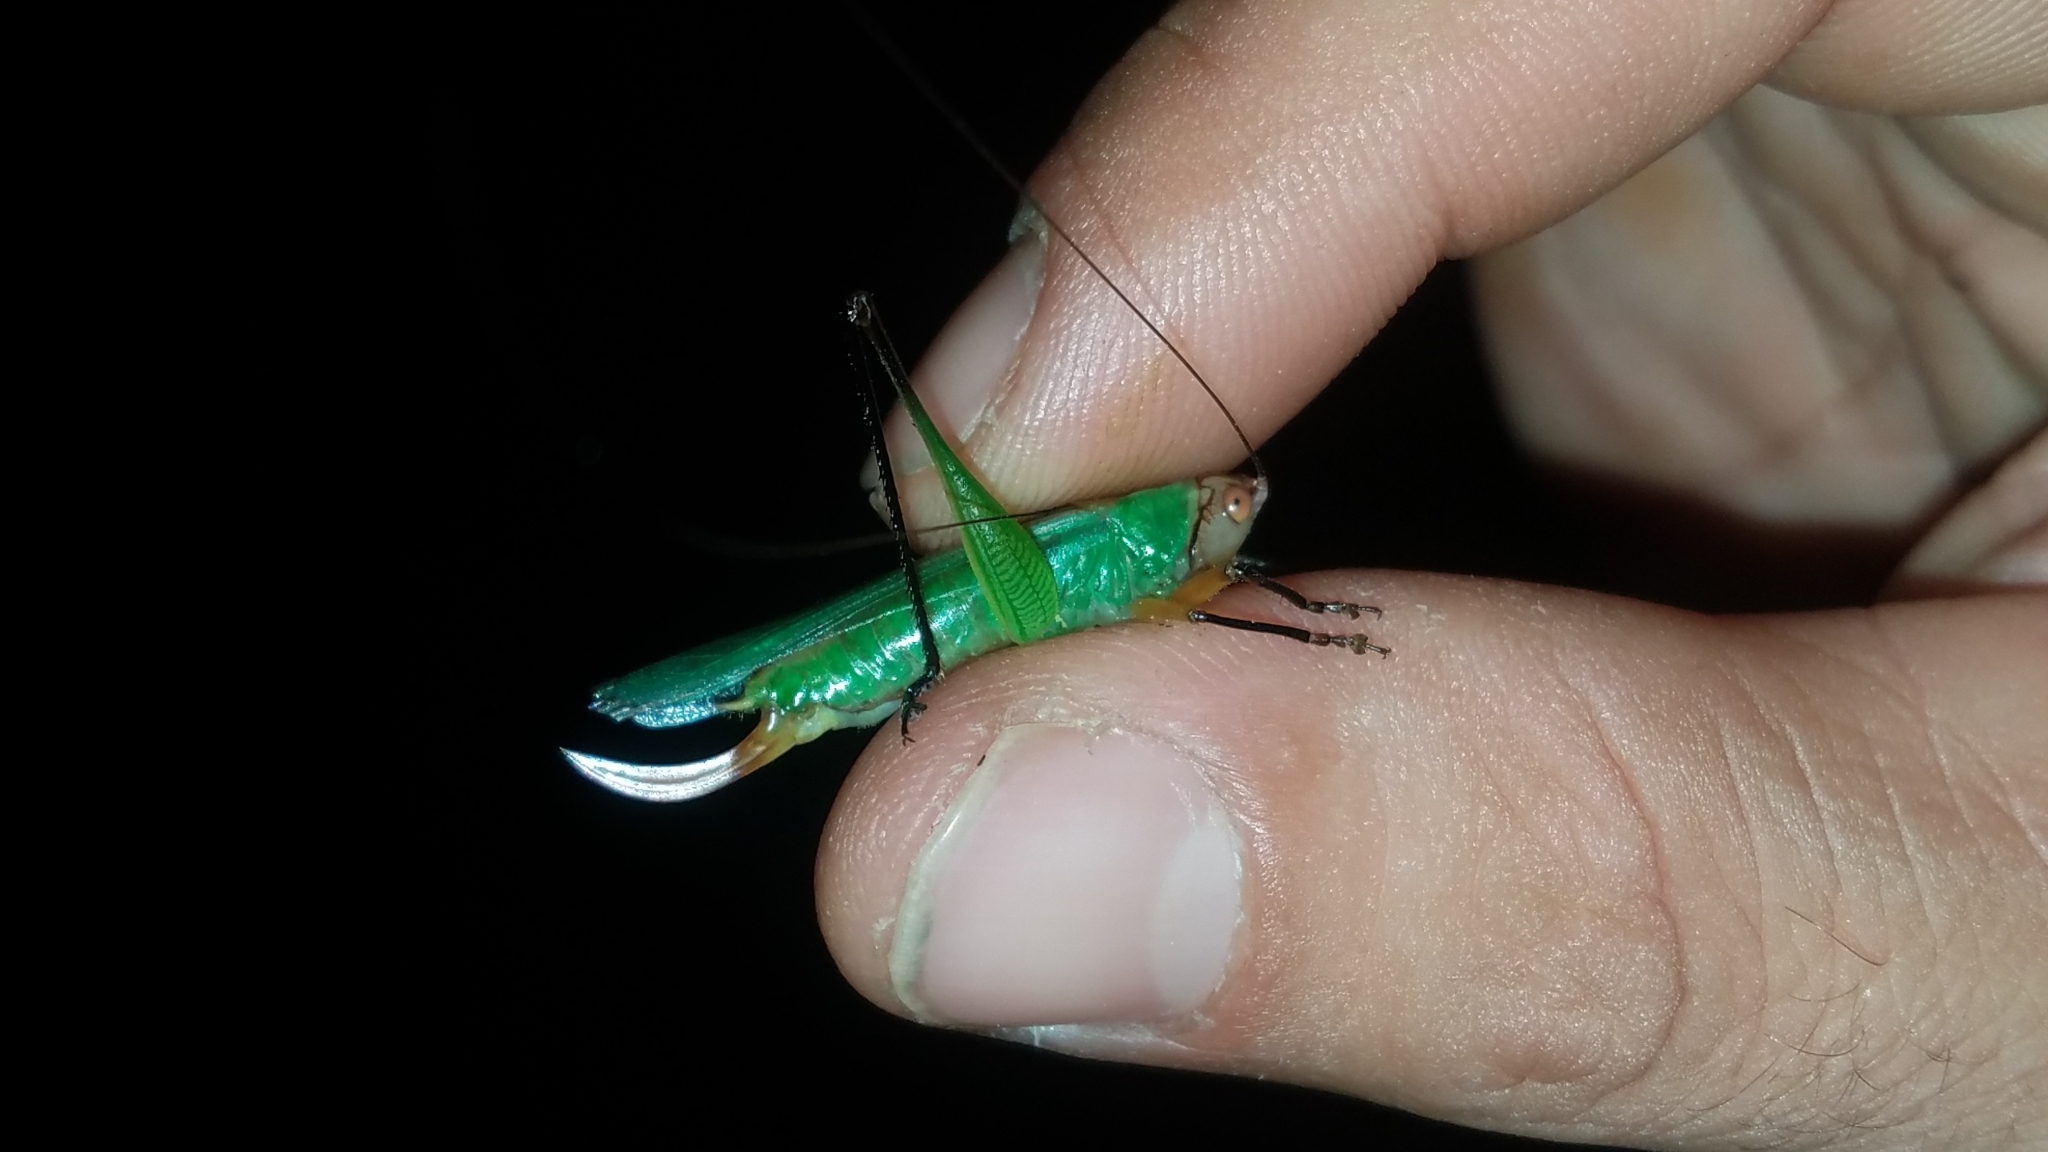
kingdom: Animalia
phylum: Arthropoda
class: Insecta
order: Orthoptera
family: Tettigoniidae
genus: Orchelimum
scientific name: Orchelimum nigripes
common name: Black-legged meadow katydid
